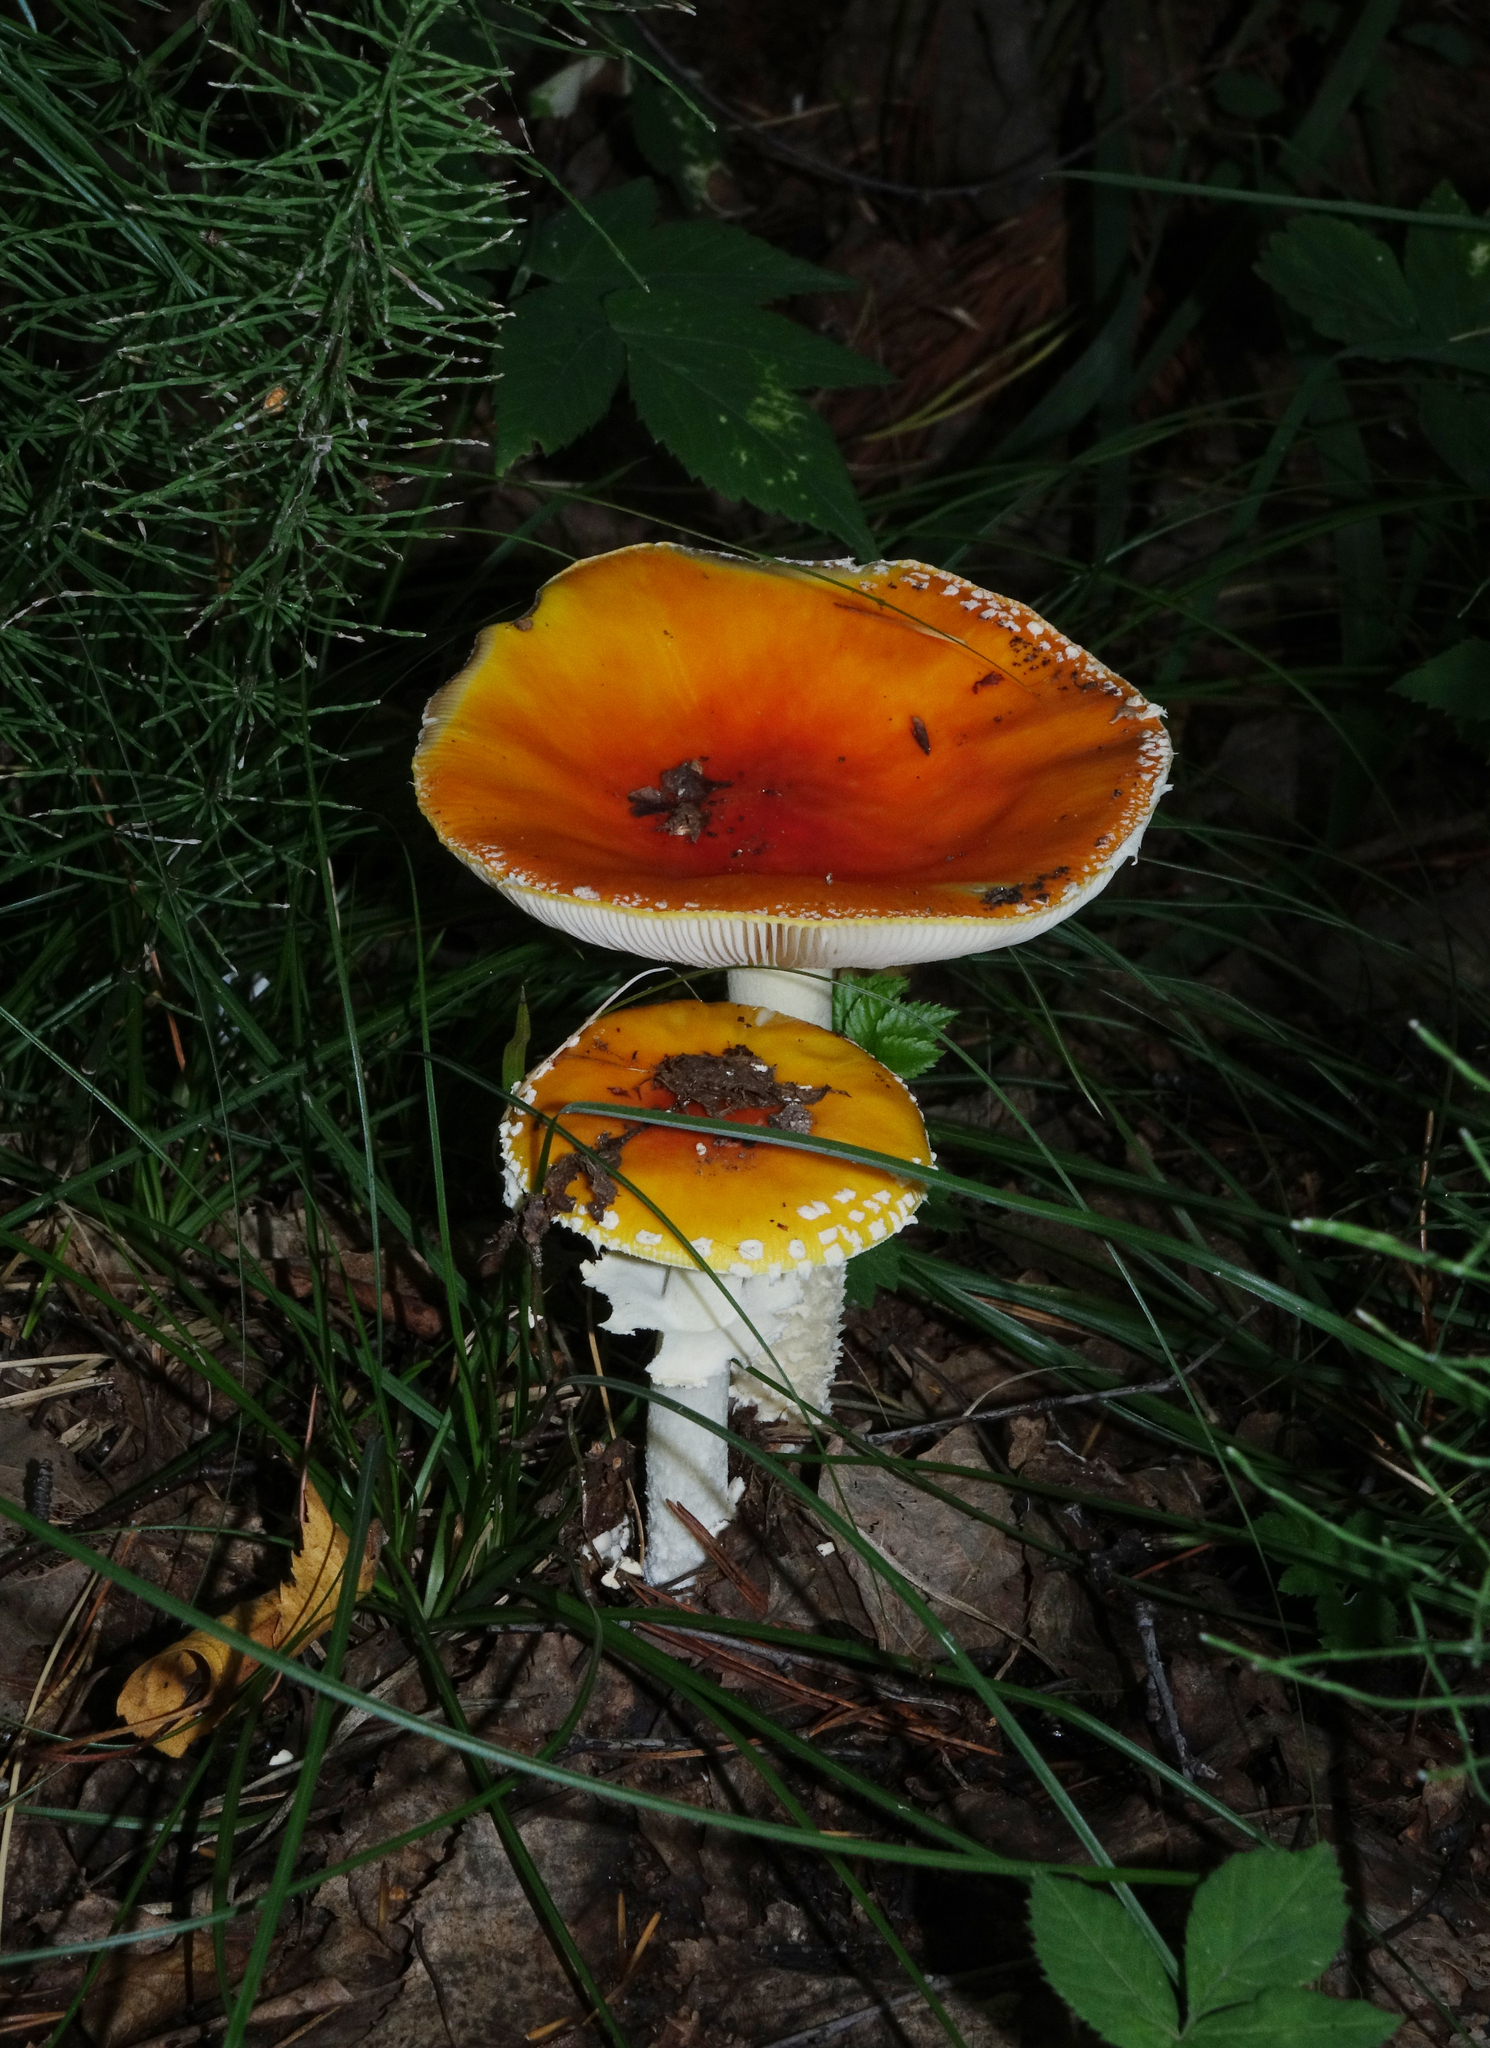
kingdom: Fungi
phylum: Basidiomycota
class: Agaricomycetes
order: Agaricales
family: Amanitaceae
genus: Amanita
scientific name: Amanita muscaria
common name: Fly agaric
